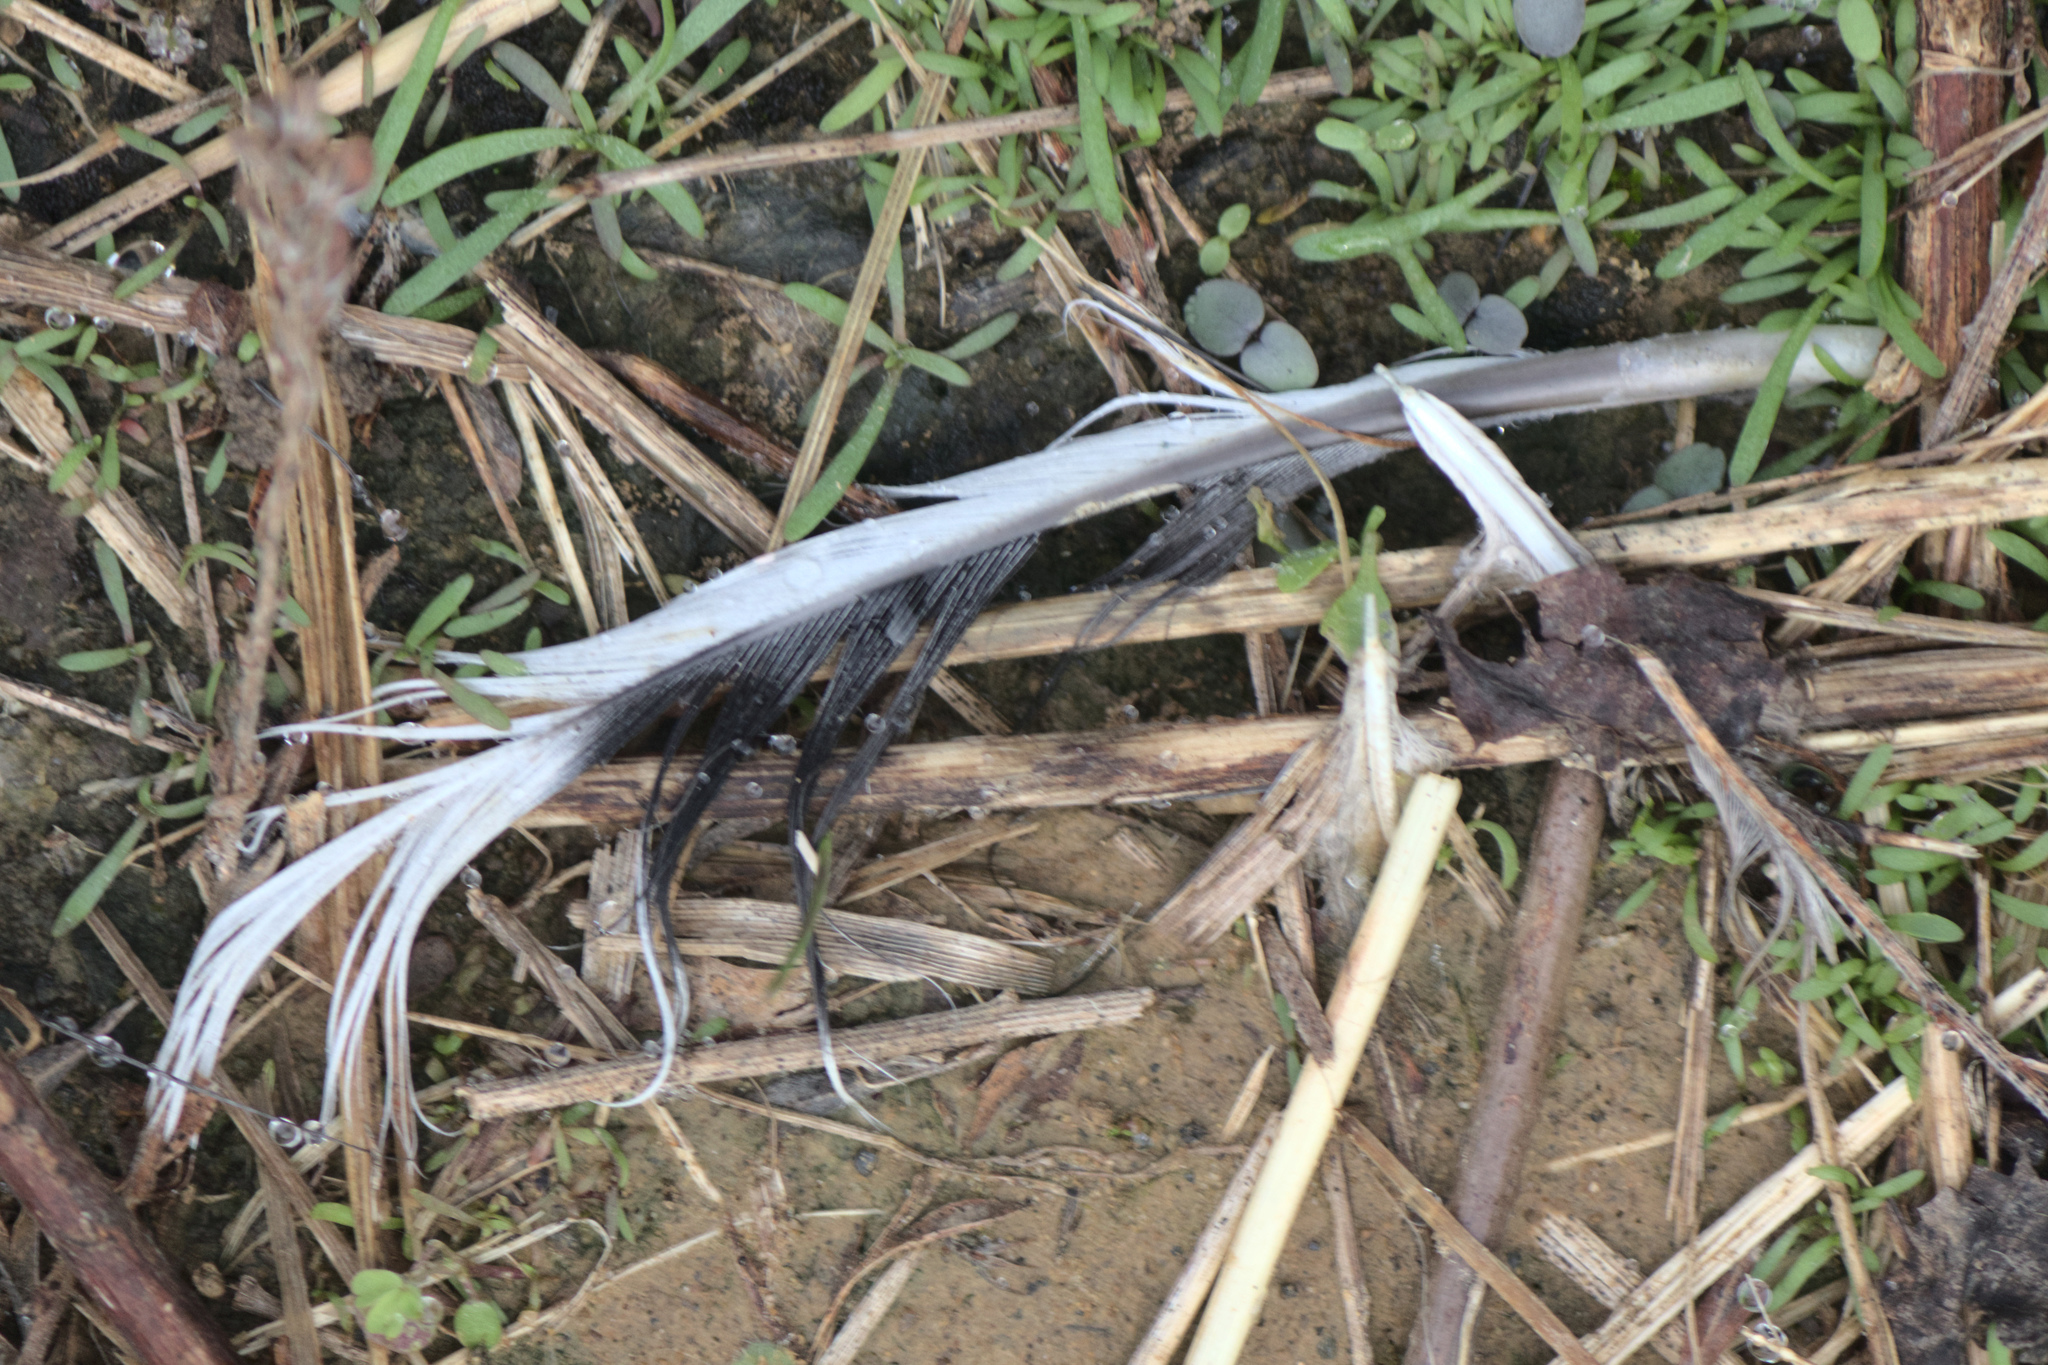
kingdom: Animalia
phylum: Chordata
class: Aves
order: Columbiformes
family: Columbidae
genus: Zenaida
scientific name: Zenaida macroura
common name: Mourning dove
